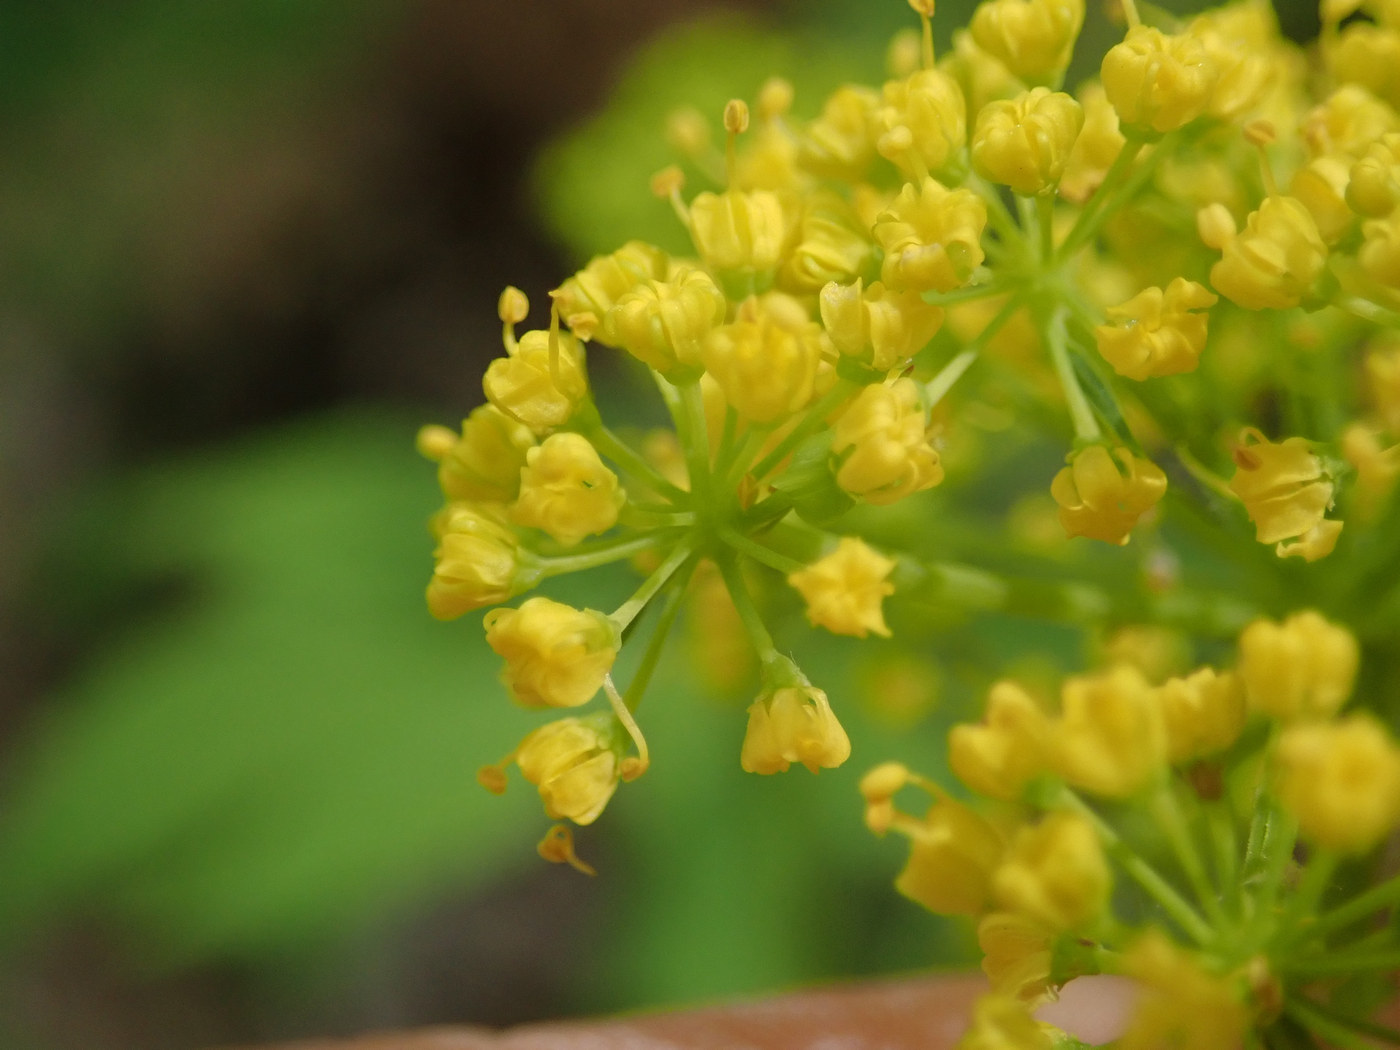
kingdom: Plantae
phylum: Tracheophyta
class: Magnoliopsida
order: Apiales
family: Apiaceae
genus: Thaspium
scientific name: Thaspium barbinode
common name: Bearded meadow-parsnip
